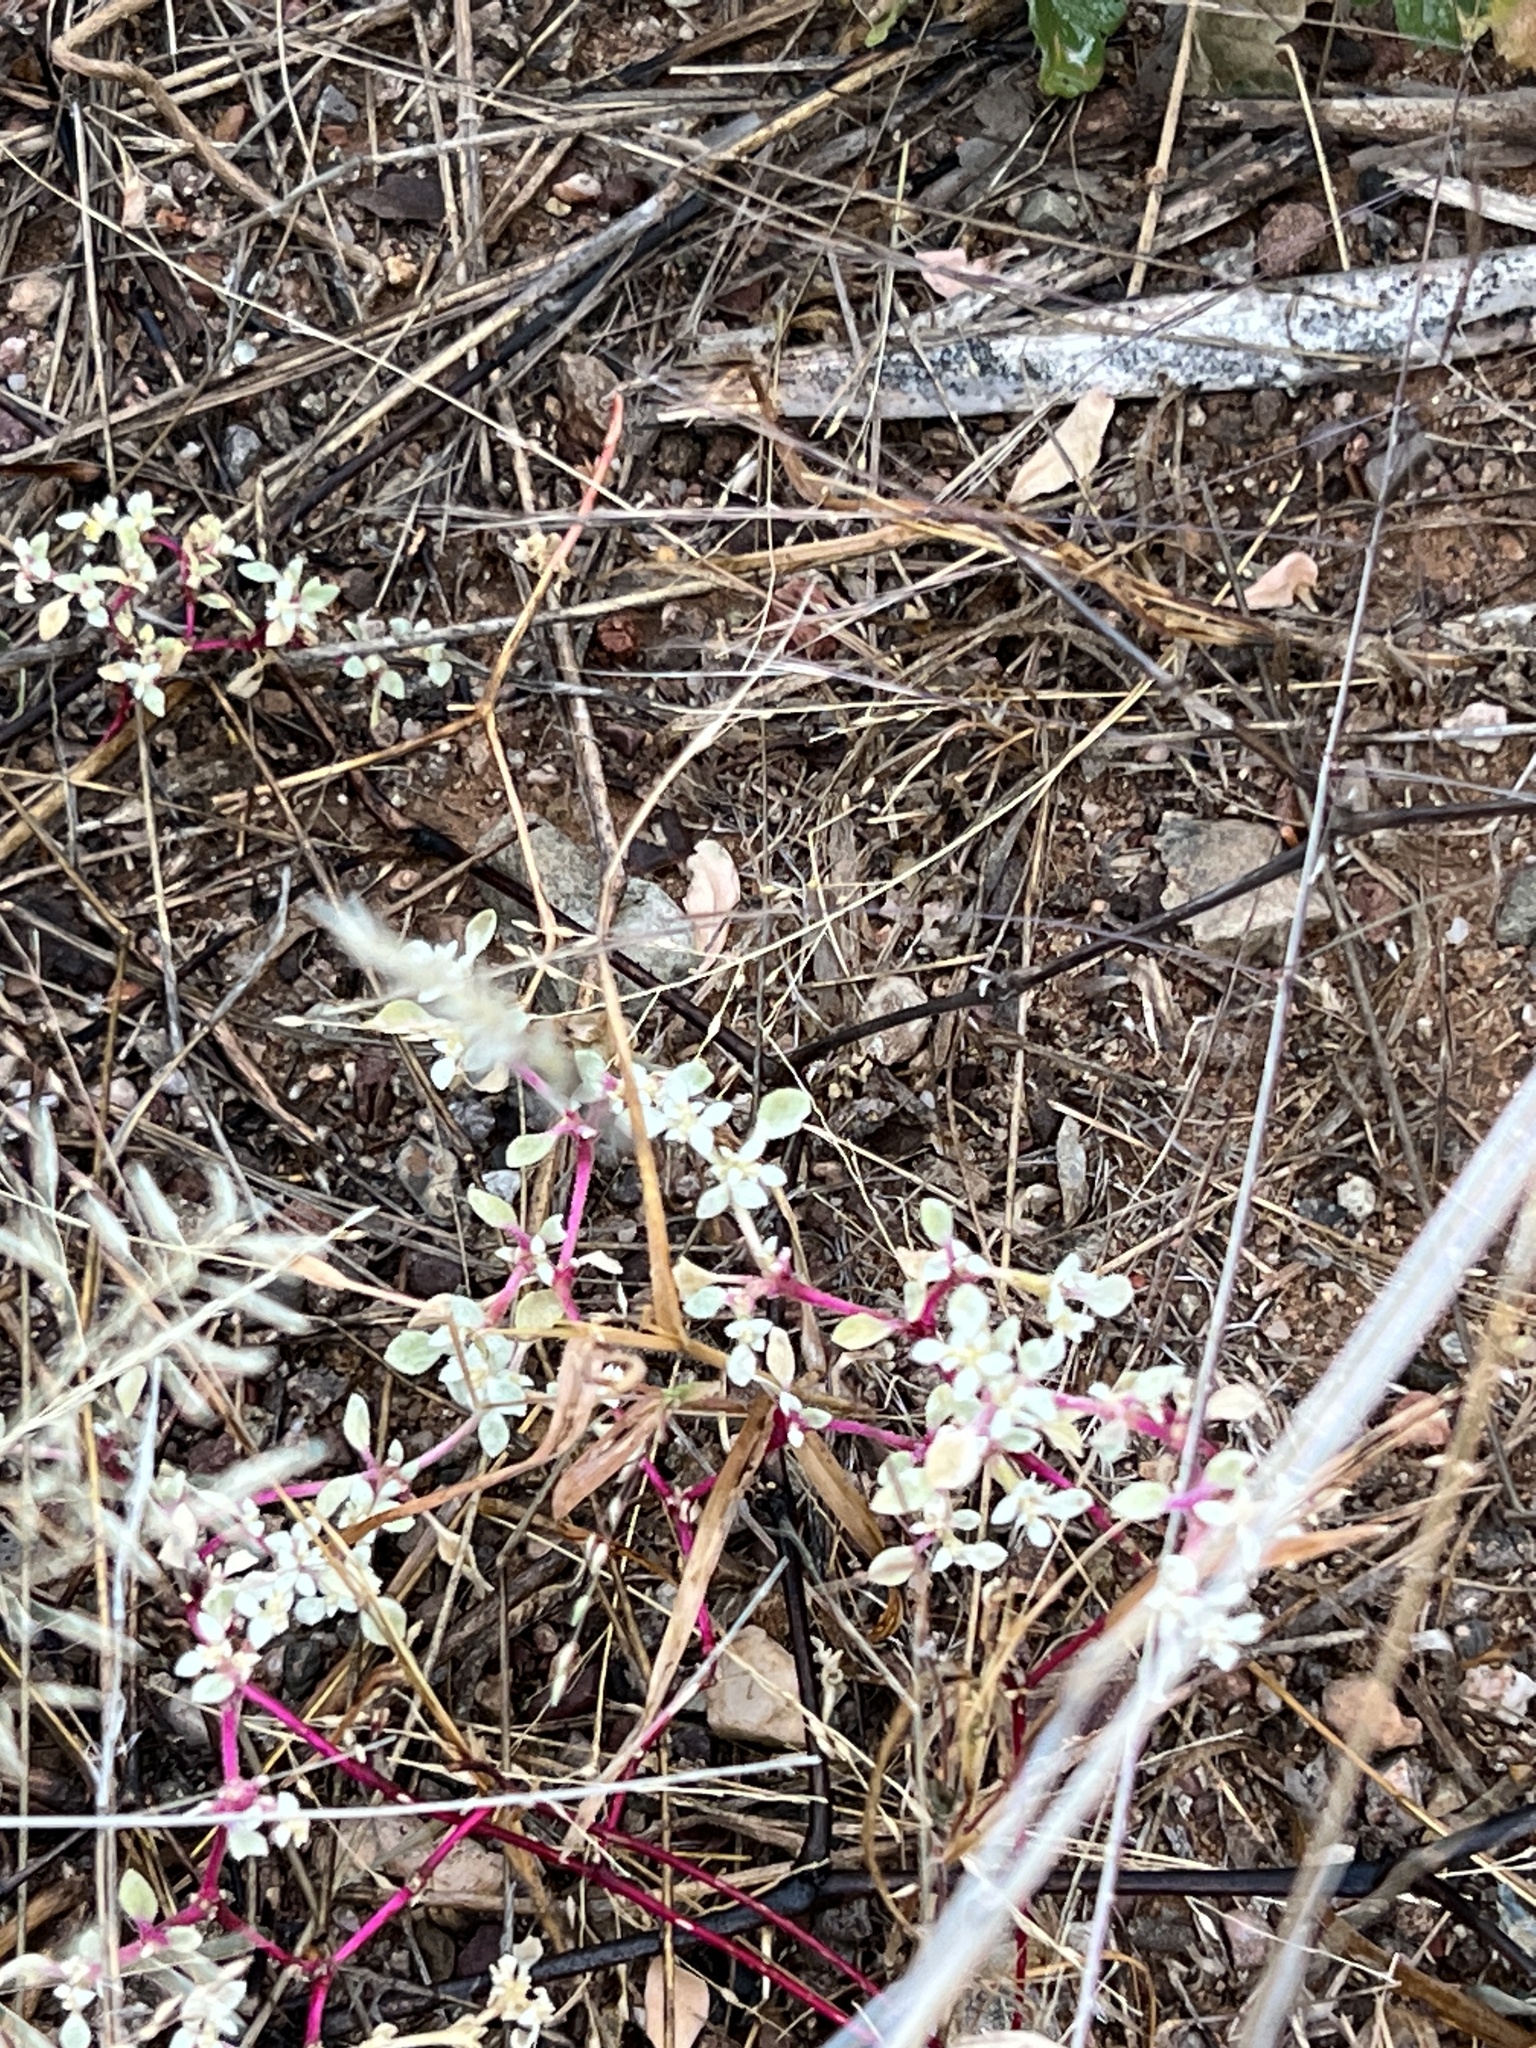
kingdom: Plantae
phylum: Tracheophyta
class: Magnoliopsida
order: Caryophyllales
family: Amaranthaceae
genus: Tidestromia
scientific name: Tidestromia lanuginosa
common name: Woolly tidestromia
